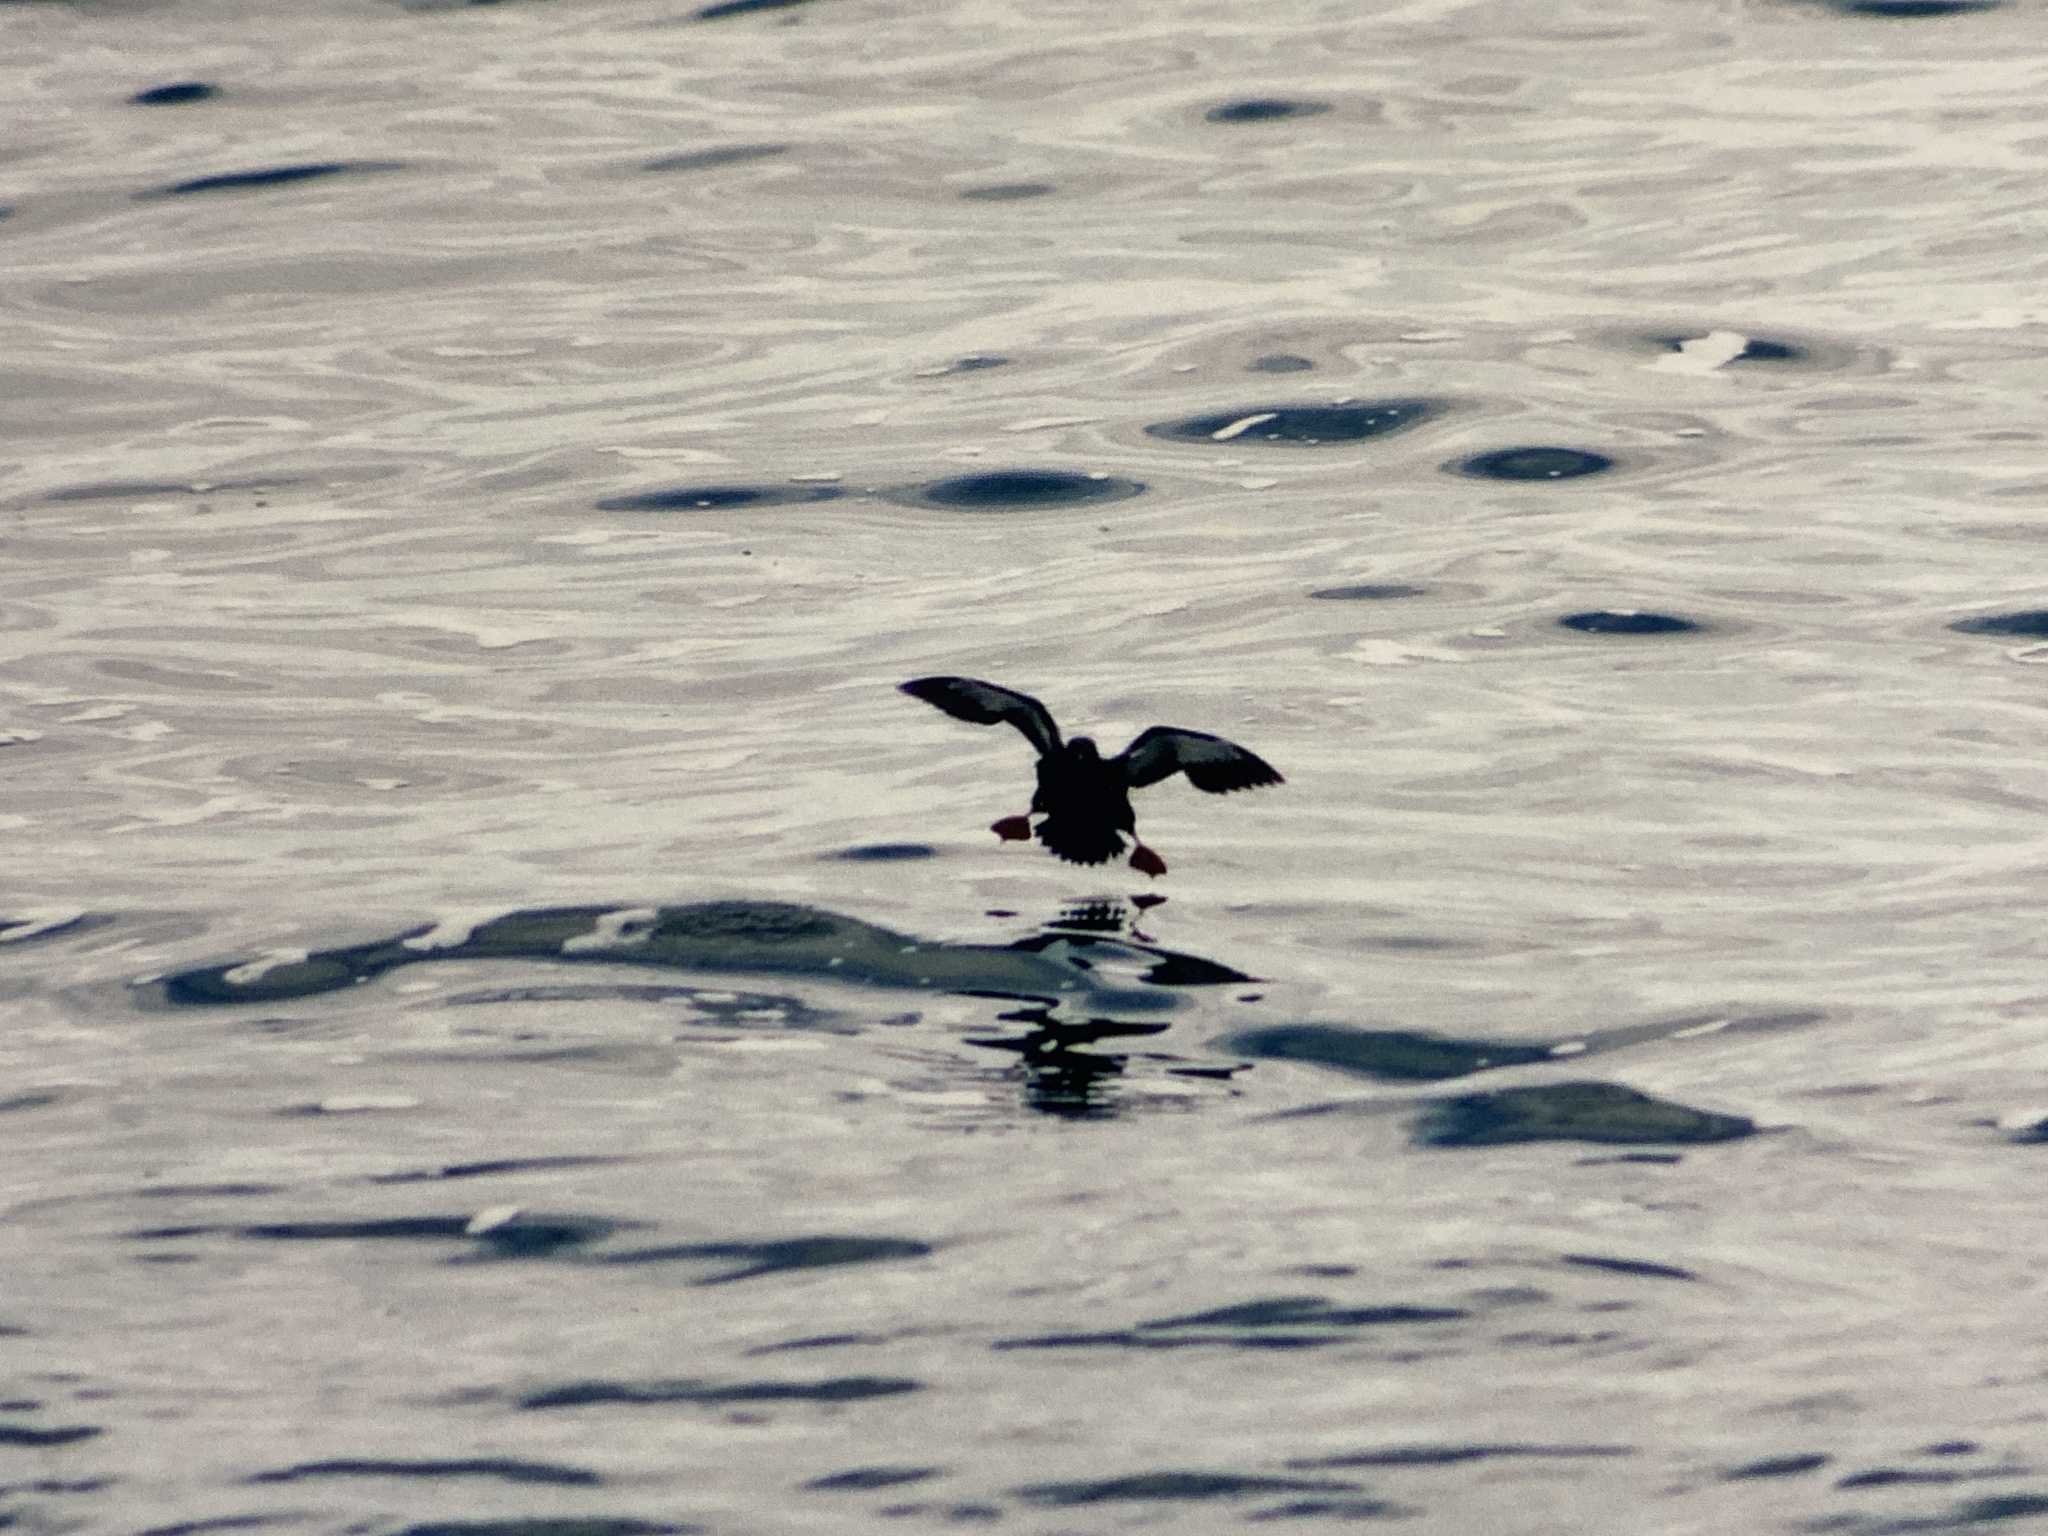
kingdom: Animalia
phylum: Chordata
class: Aves
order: Charadriiformes
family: Alcidae
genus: Cepphus
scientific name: Cepphus grylle
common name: Black guillemot
